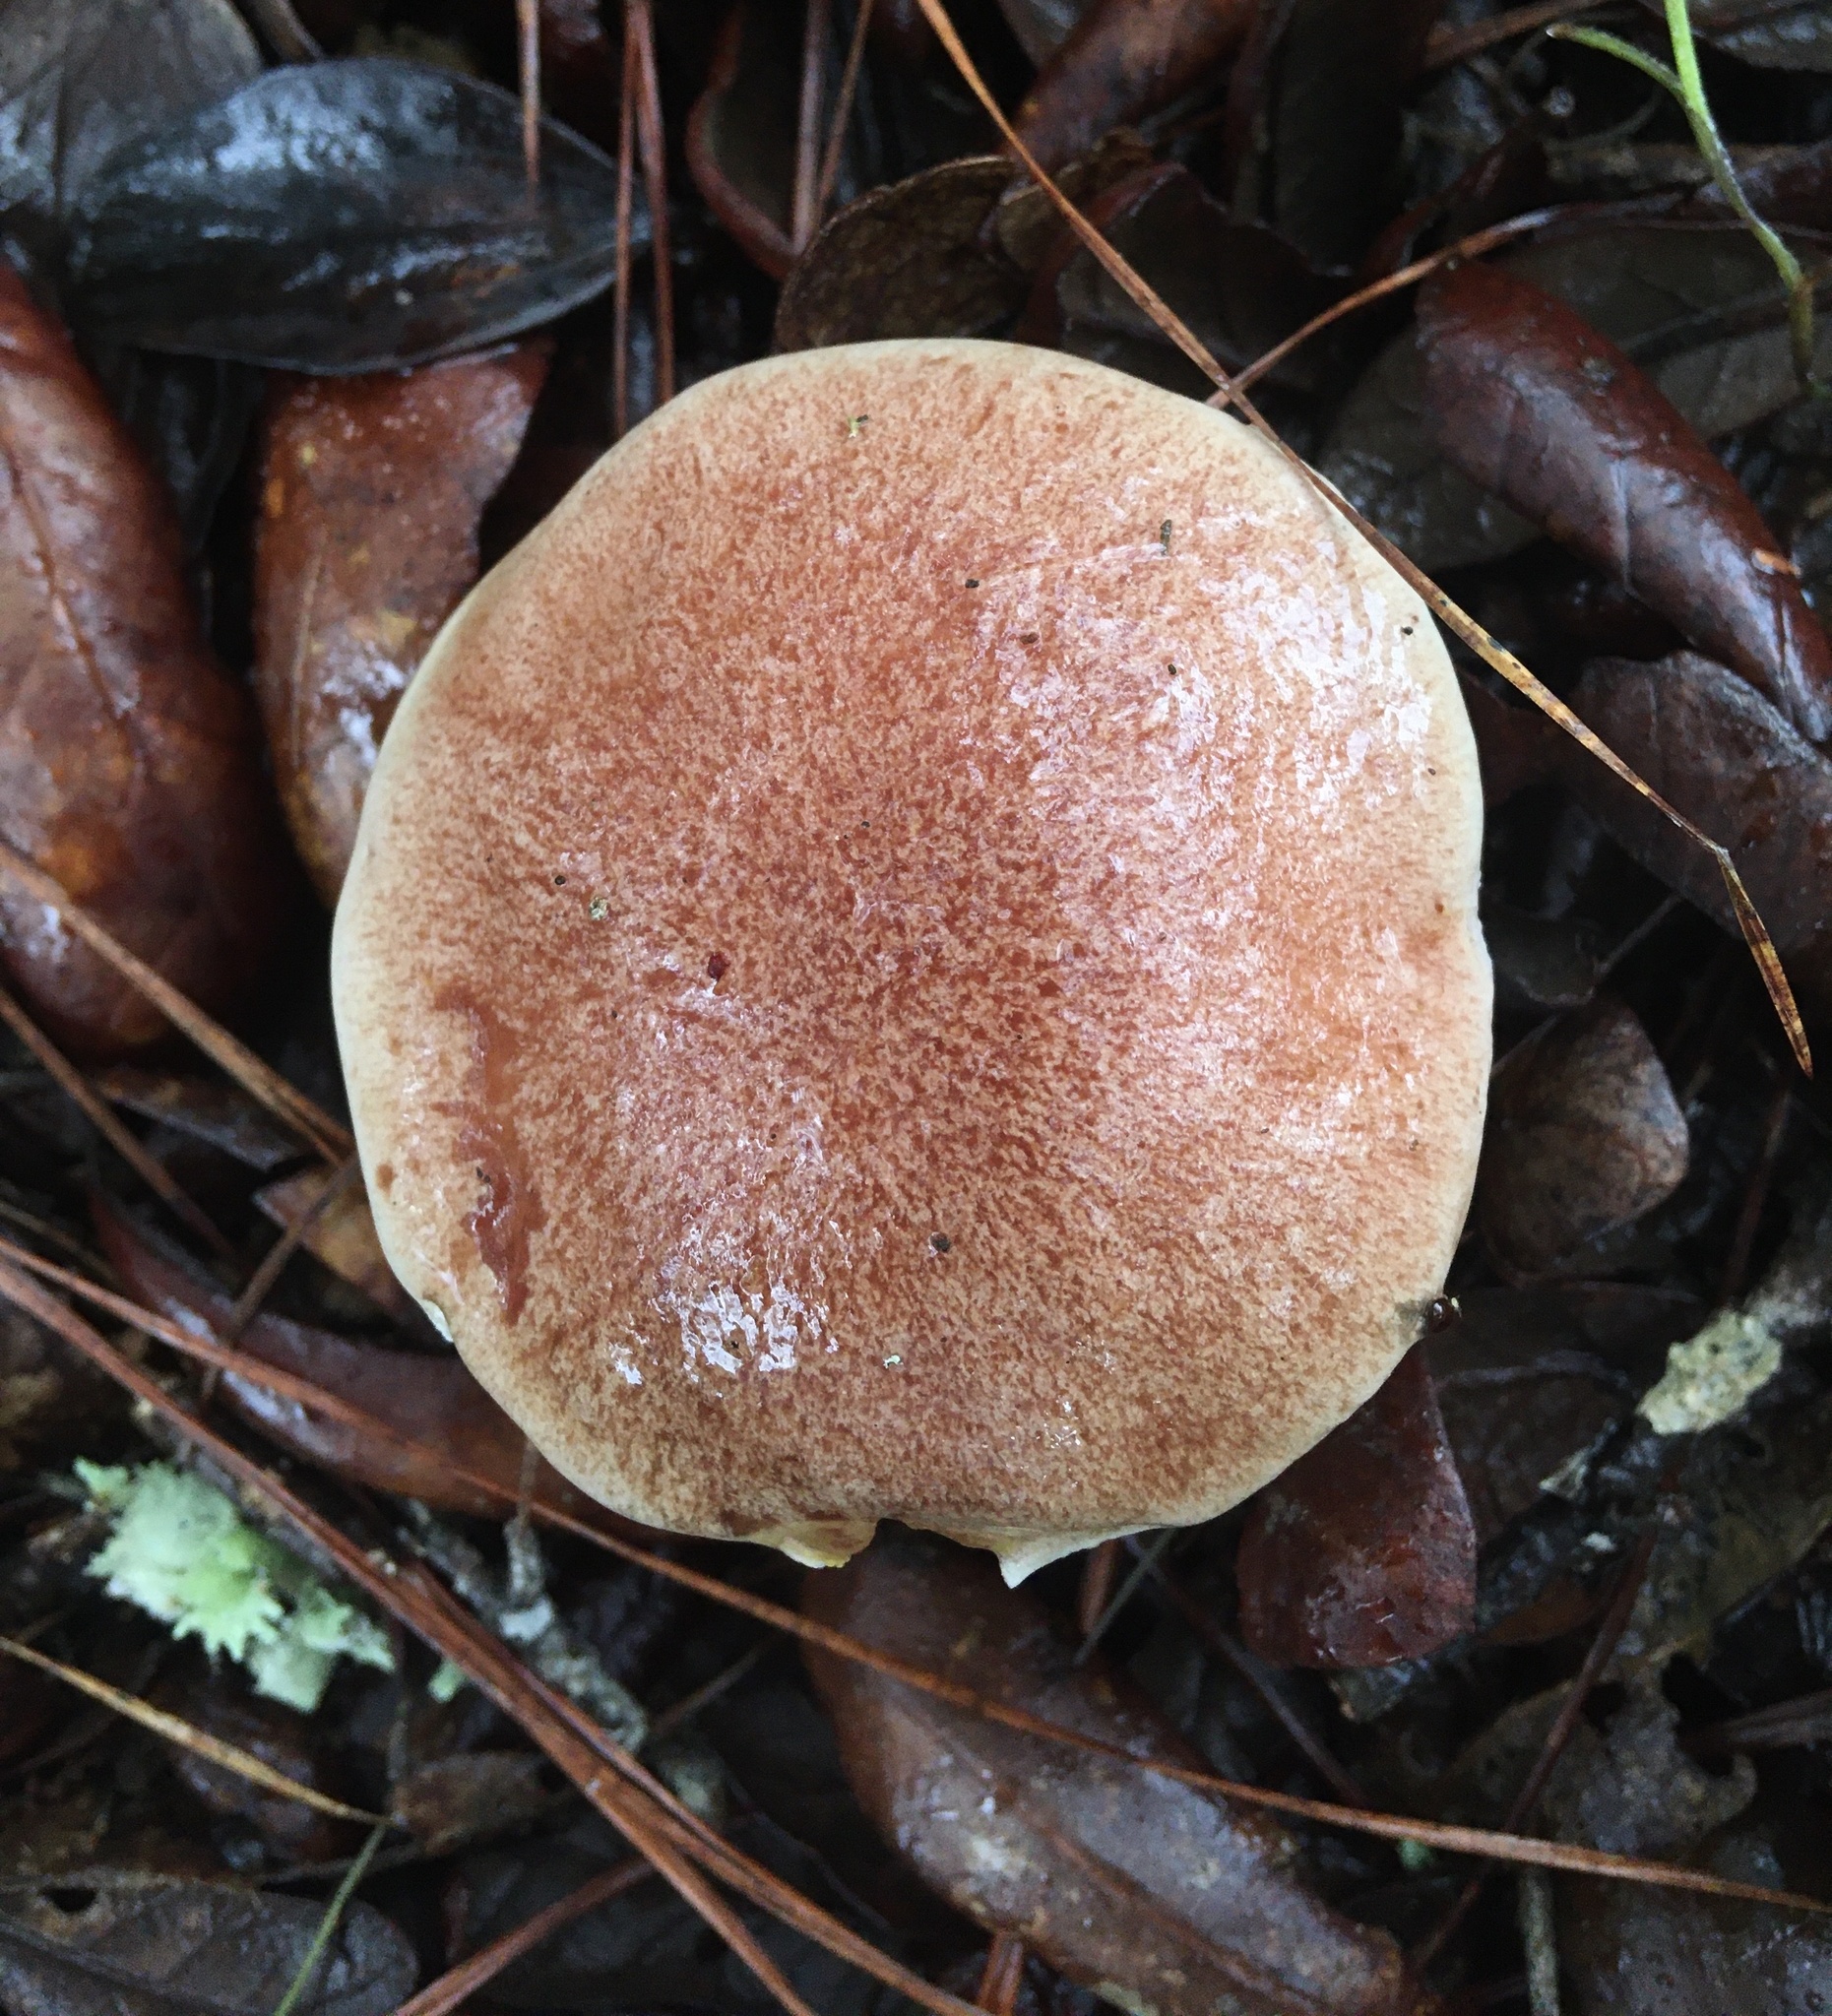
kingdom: Fungi
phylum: Basidiomycota
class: Agaricomycetes
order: Boletales
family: Boletaceae
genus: Aureoboletus
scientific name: Aureoboletus auriporus
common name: Sour gold-pored bolete
